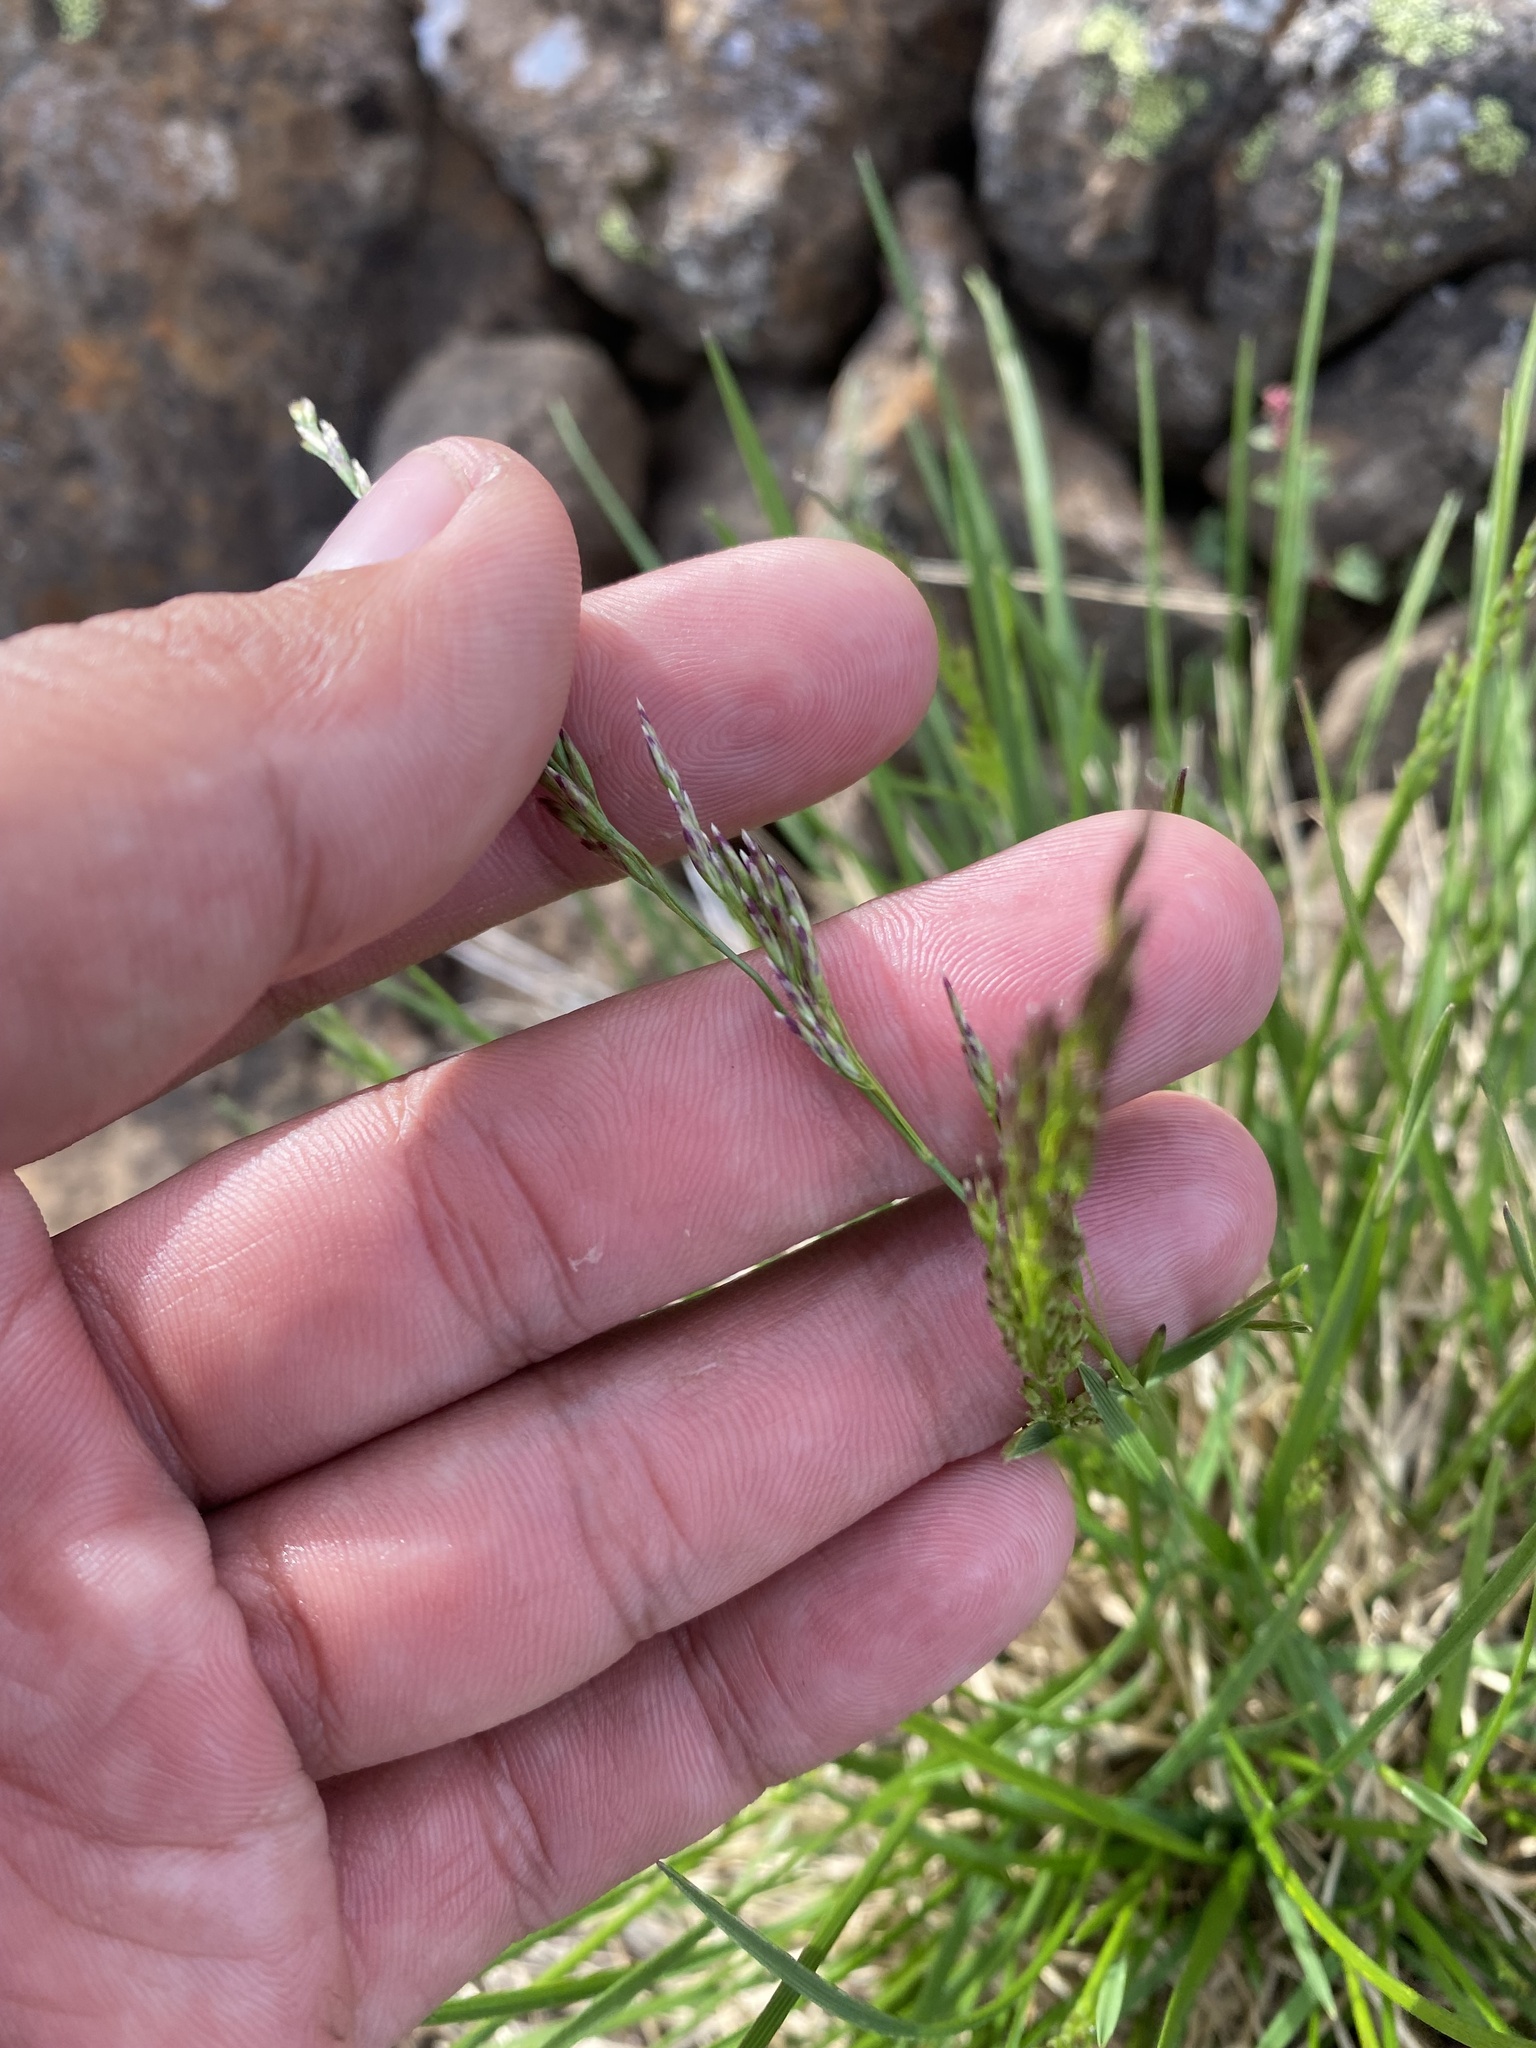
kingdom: Plantae
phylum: Tracheophyta
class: Liliopsida
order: Poales
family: Poaceae
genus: Deschampsia
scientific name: Deschampsia cespitosa
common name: Tufted hair-grass
